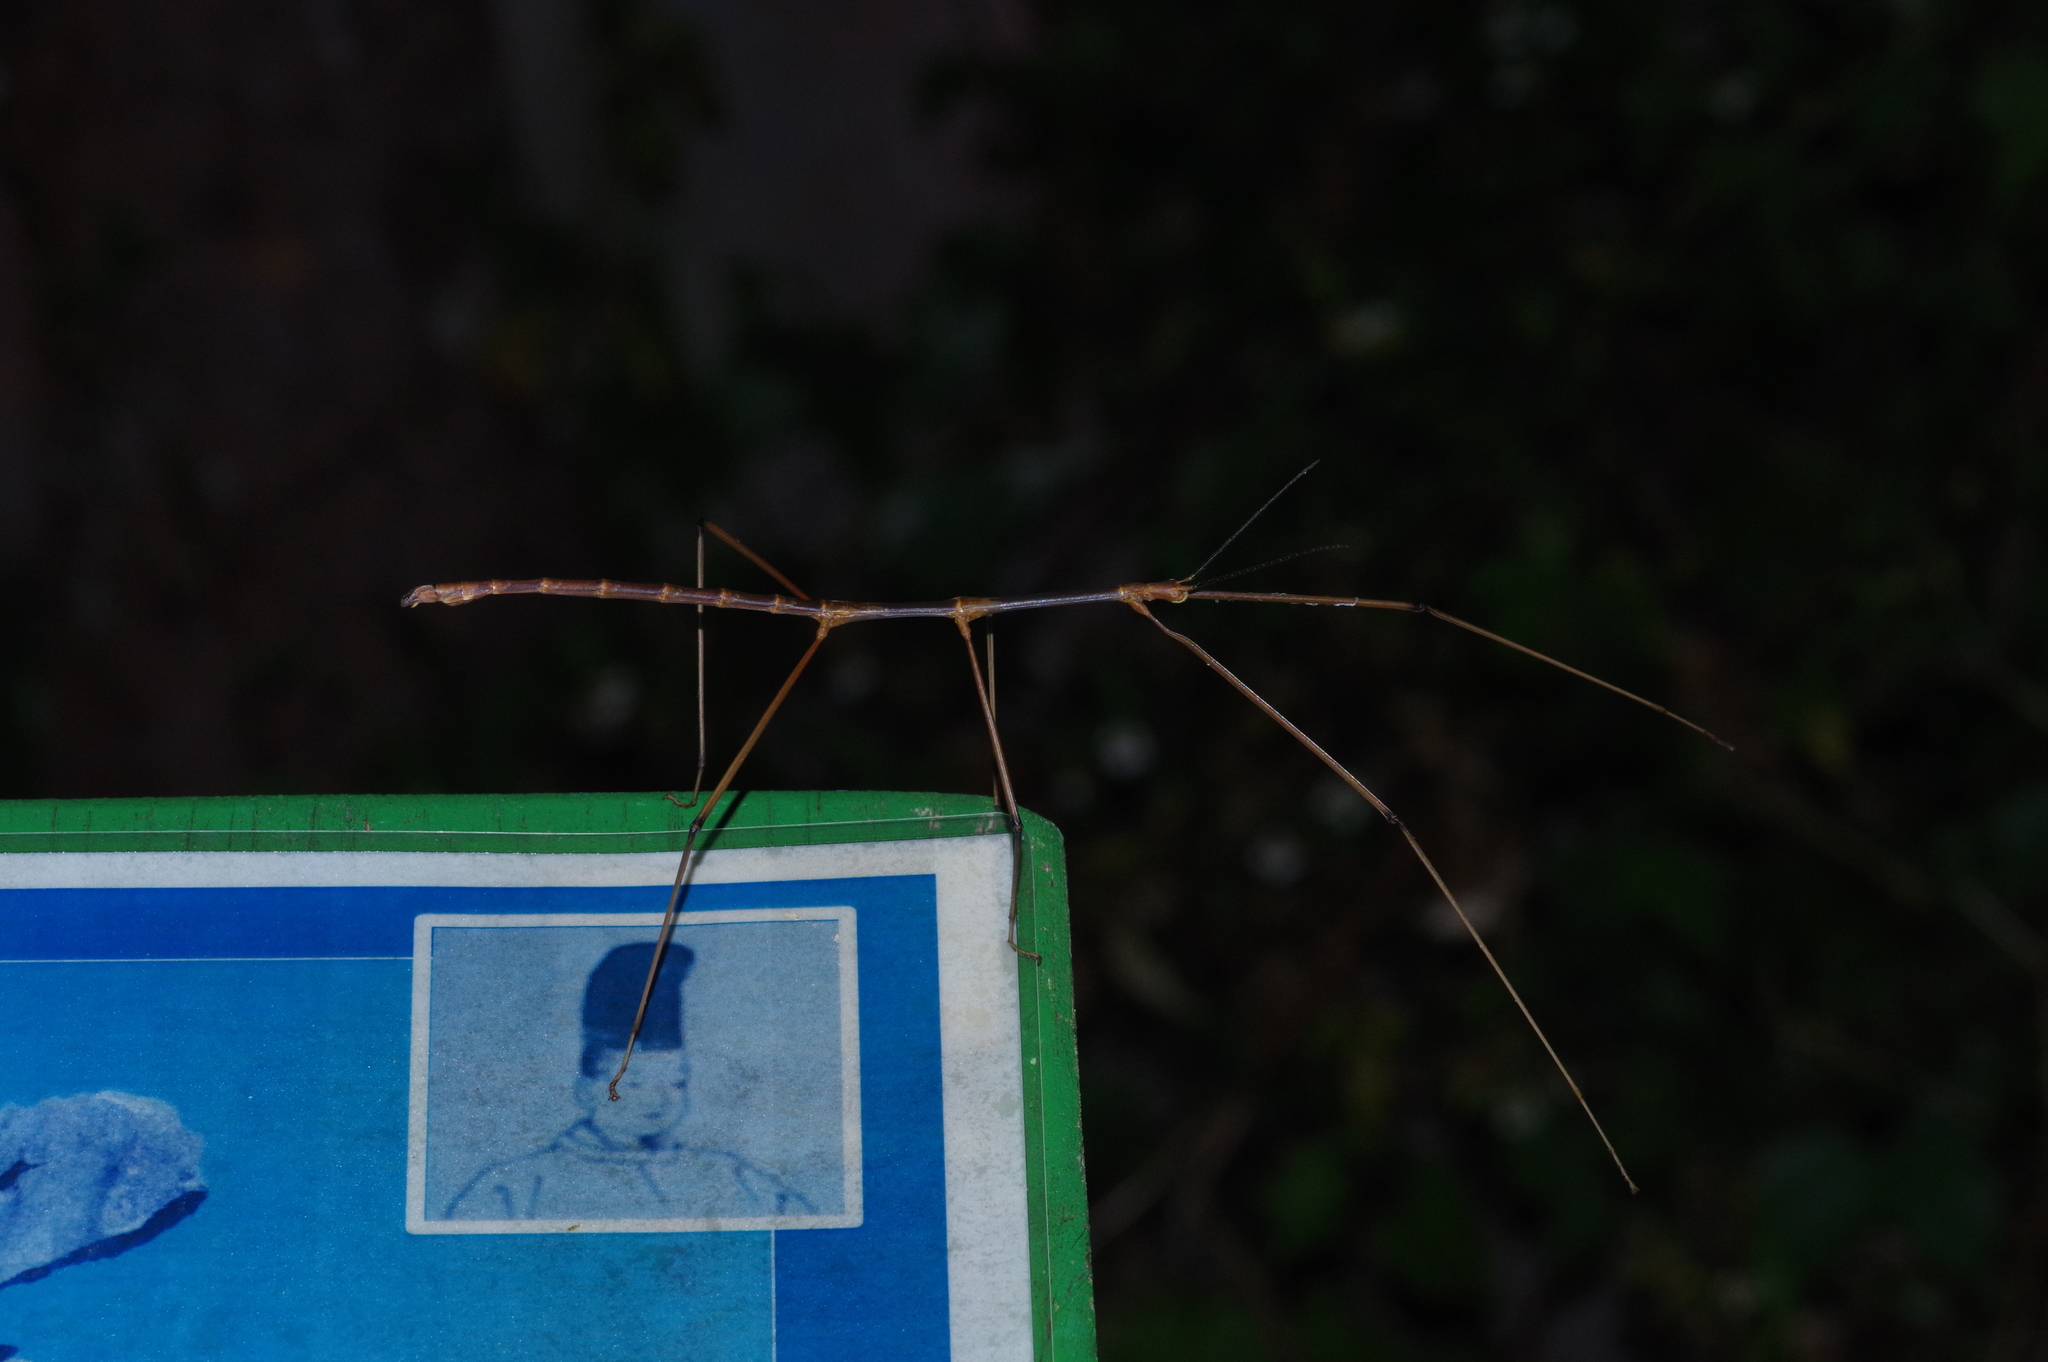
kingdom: Animalia
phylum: Arthropoda
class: Insecta
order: Phasmida
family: Phasmatidae
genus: Entoria
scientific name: Entoria miyakoensis
